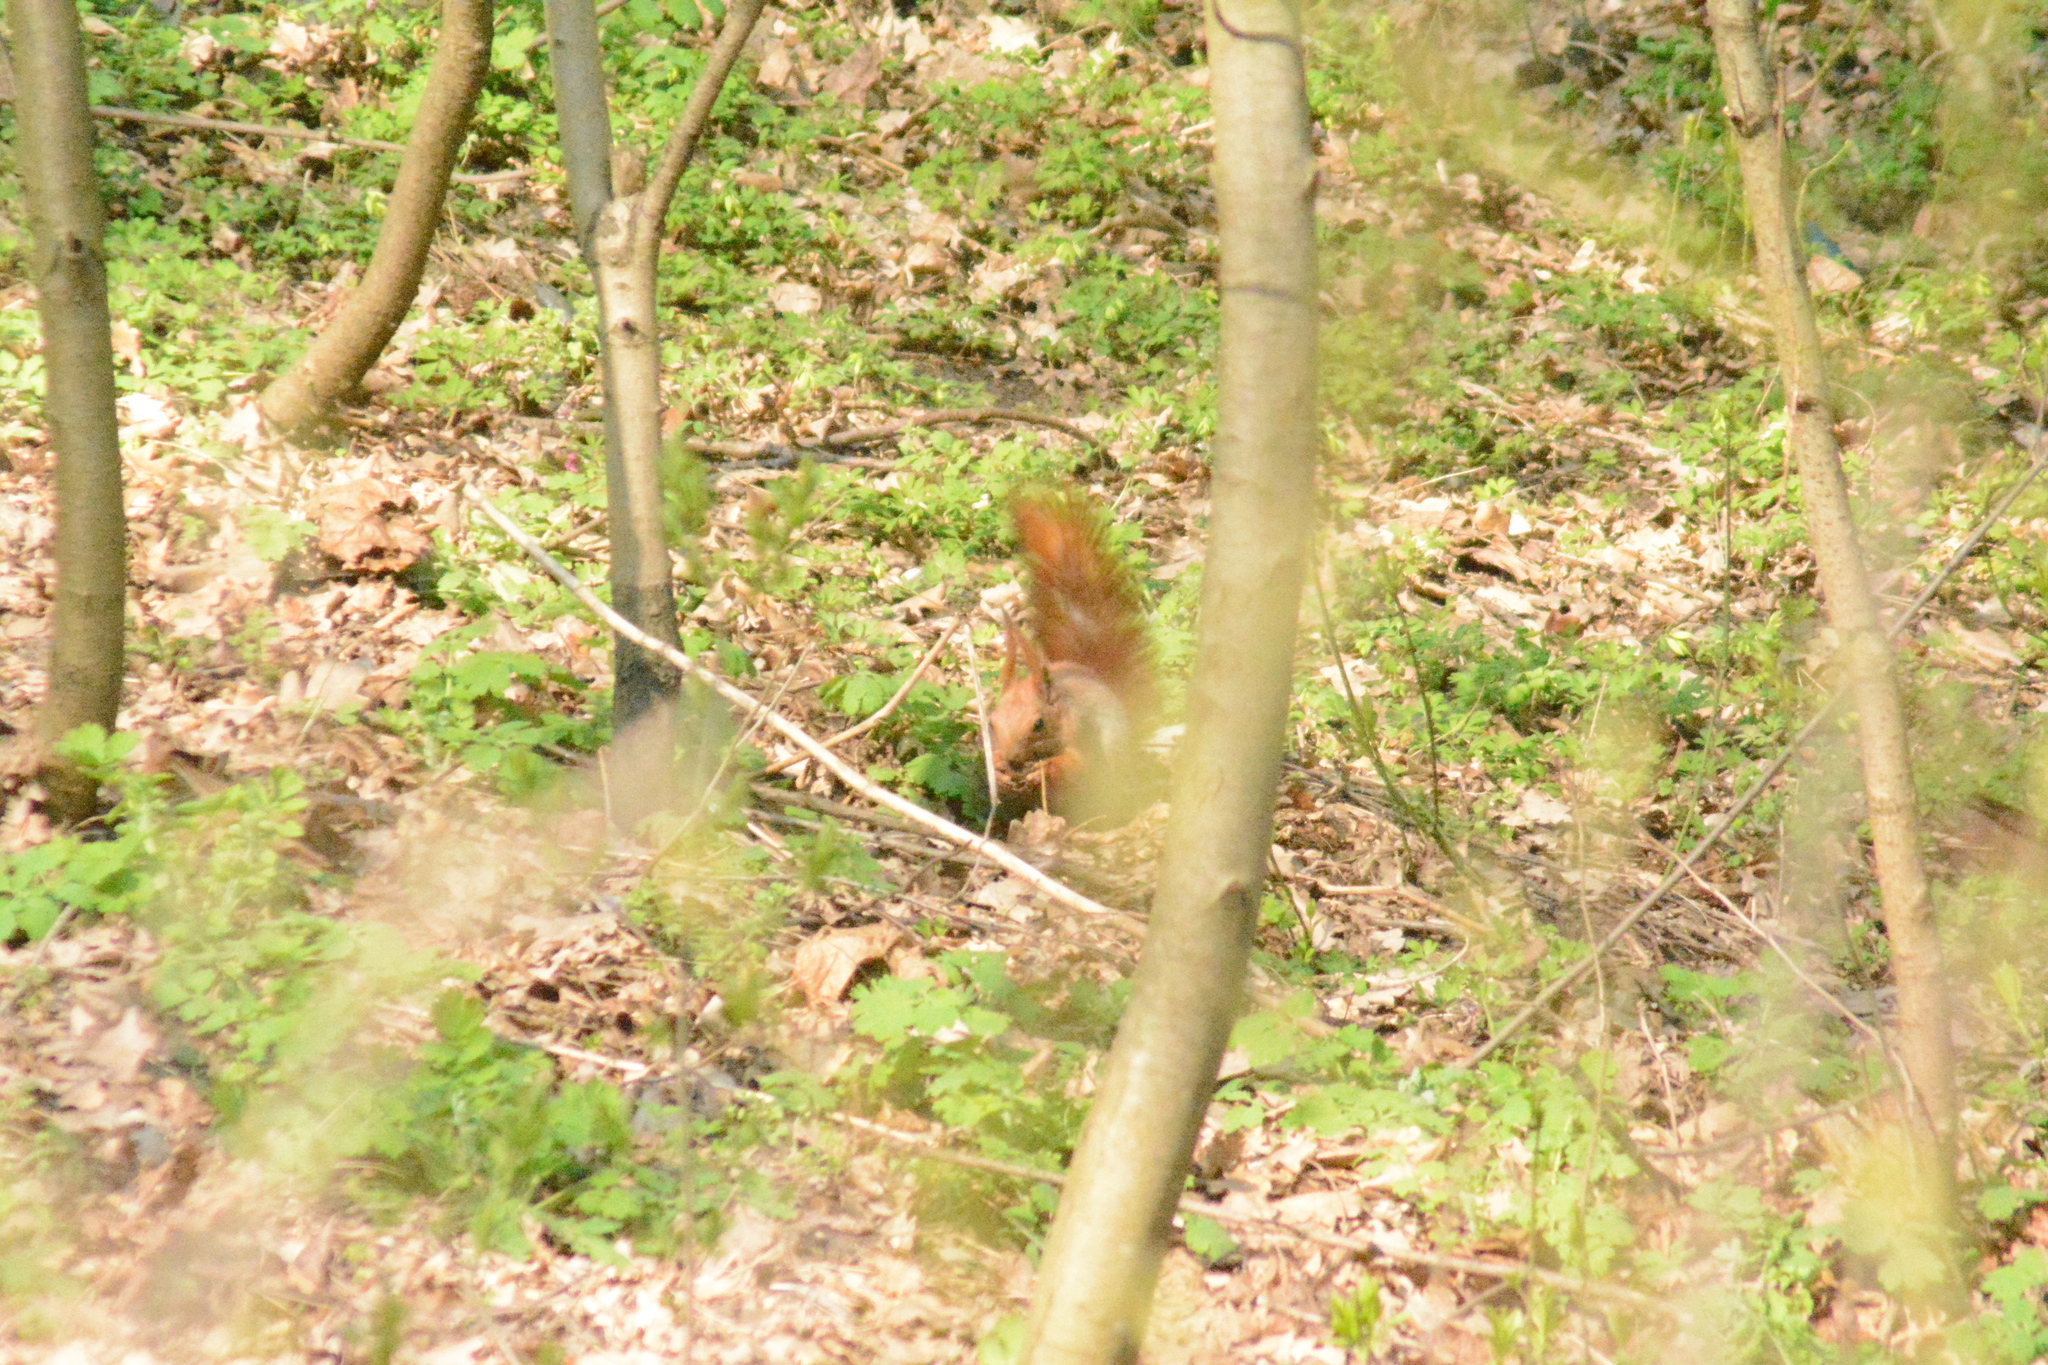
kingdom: Animalia
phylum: Chordata
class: Mammalia
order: Rodentia
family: Sciuridae
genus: Sciurus
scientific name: Sciurus vulgaris
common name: Eurasian red squirrel
